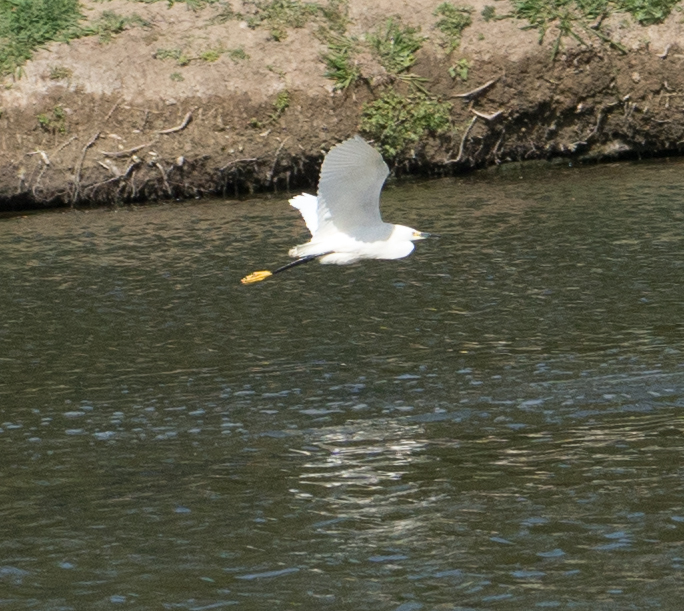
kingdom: Animalia
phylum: Chordata
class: Aves
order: Pelecaniformes
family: Ardeidae
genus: Egretta
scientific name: Egretta thula
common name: Snowy egret
